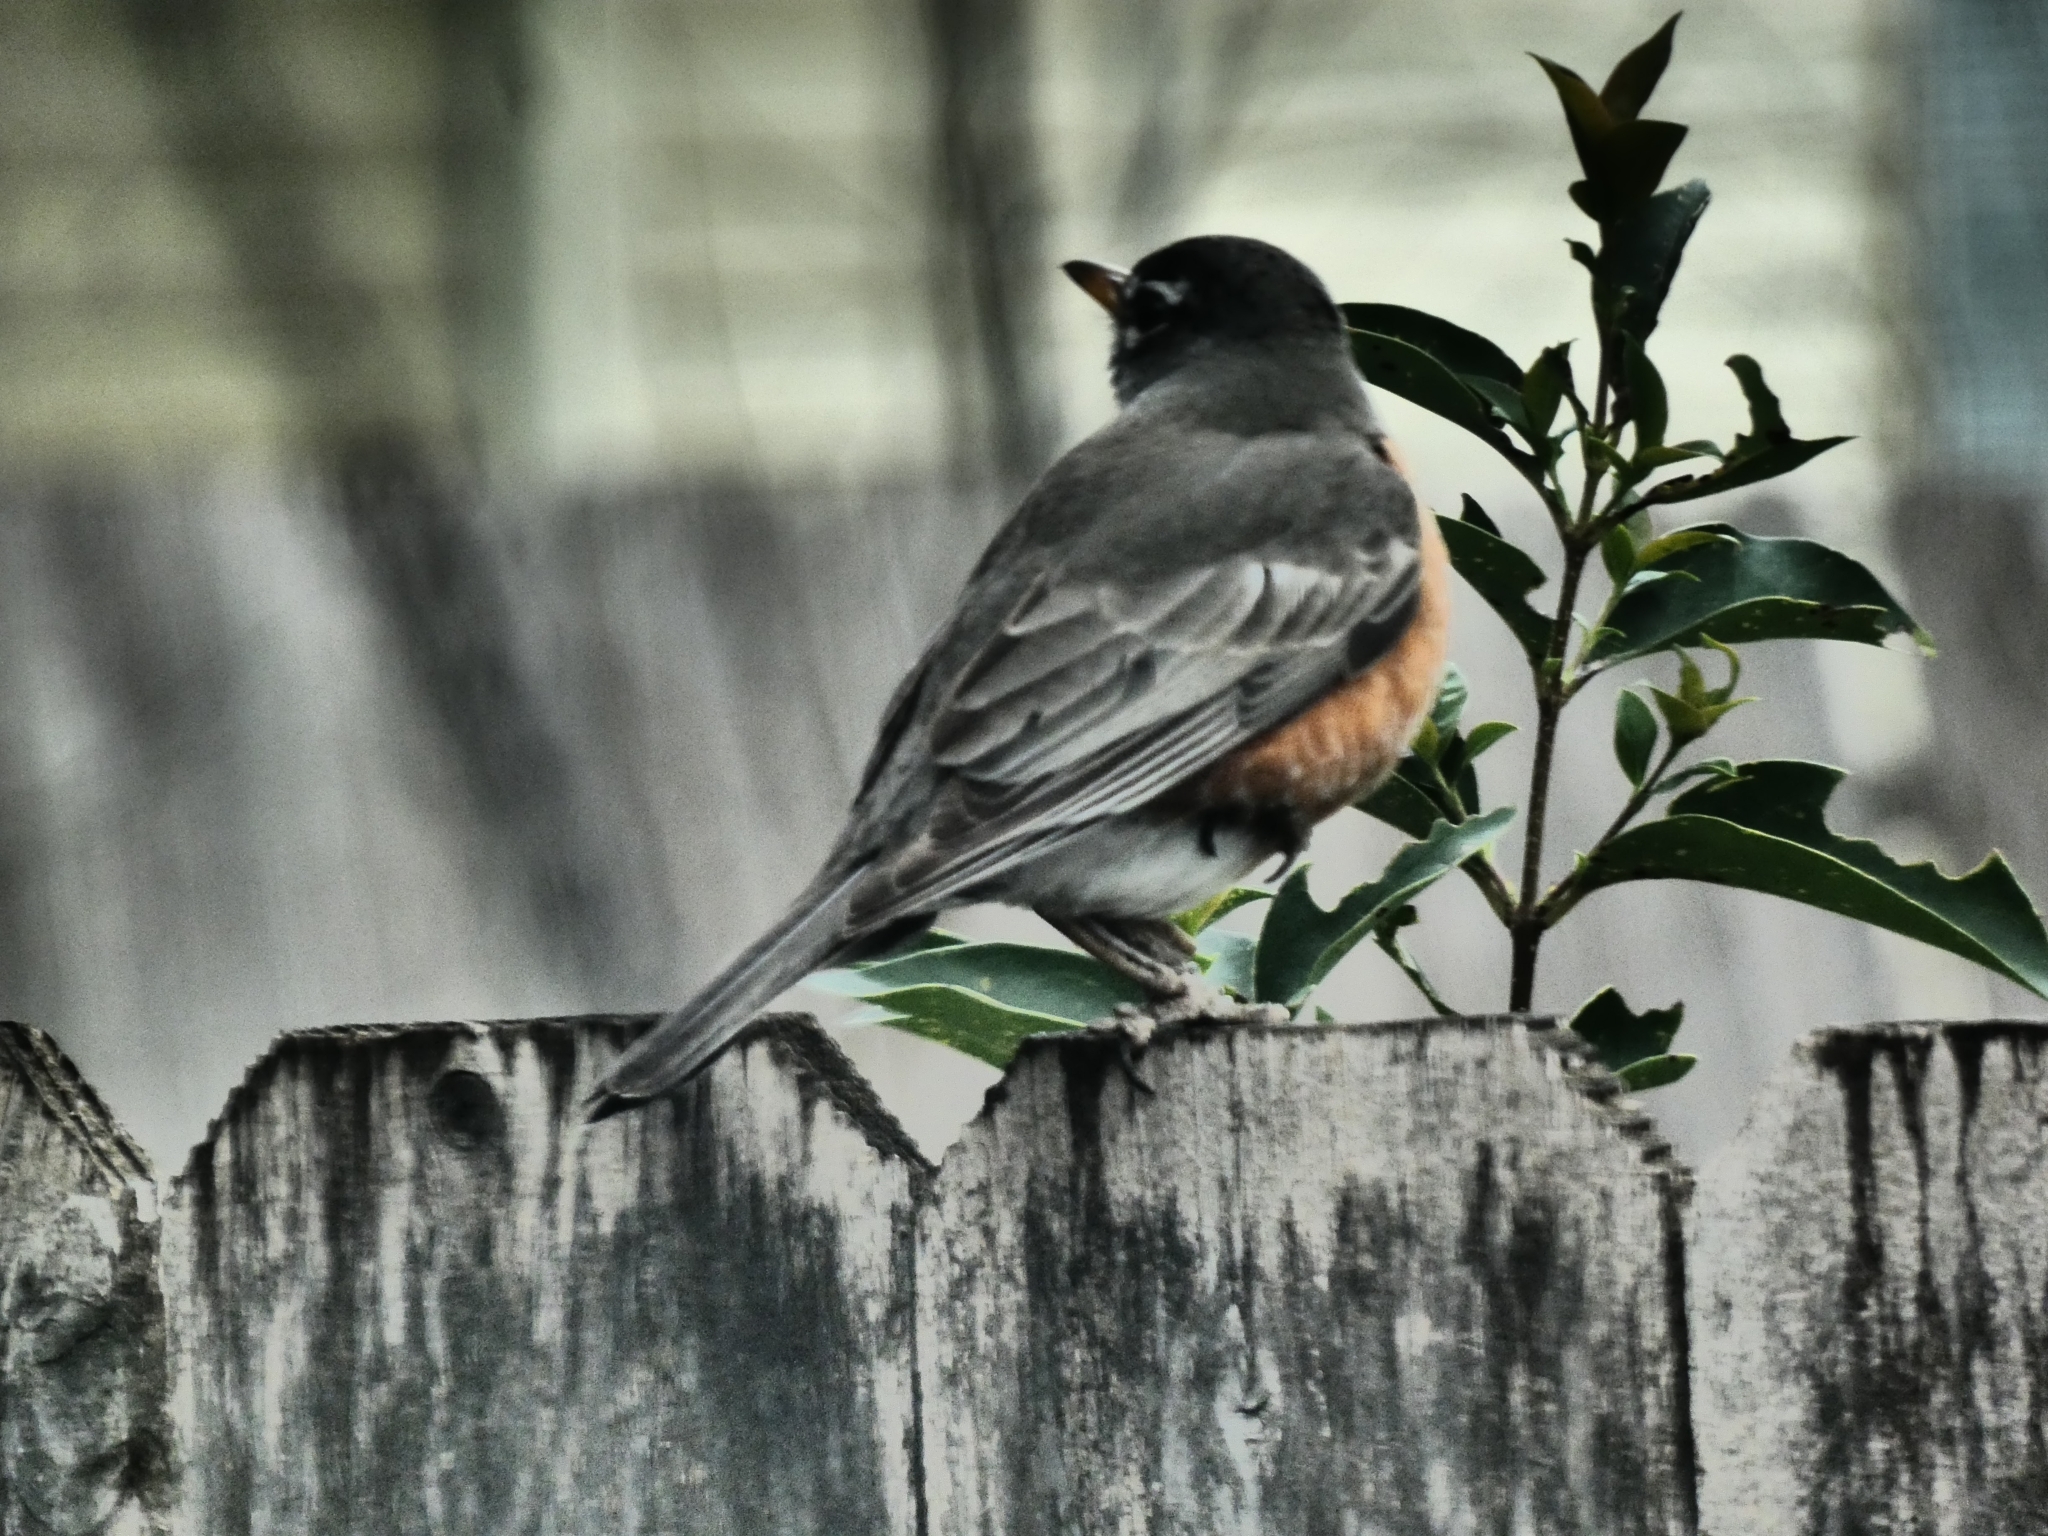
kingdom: Animalia
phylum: Chordata
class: Aves
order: Passeriformes
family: Turdidae
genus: Turdus
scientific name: Turdus migratorius
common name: American robin
